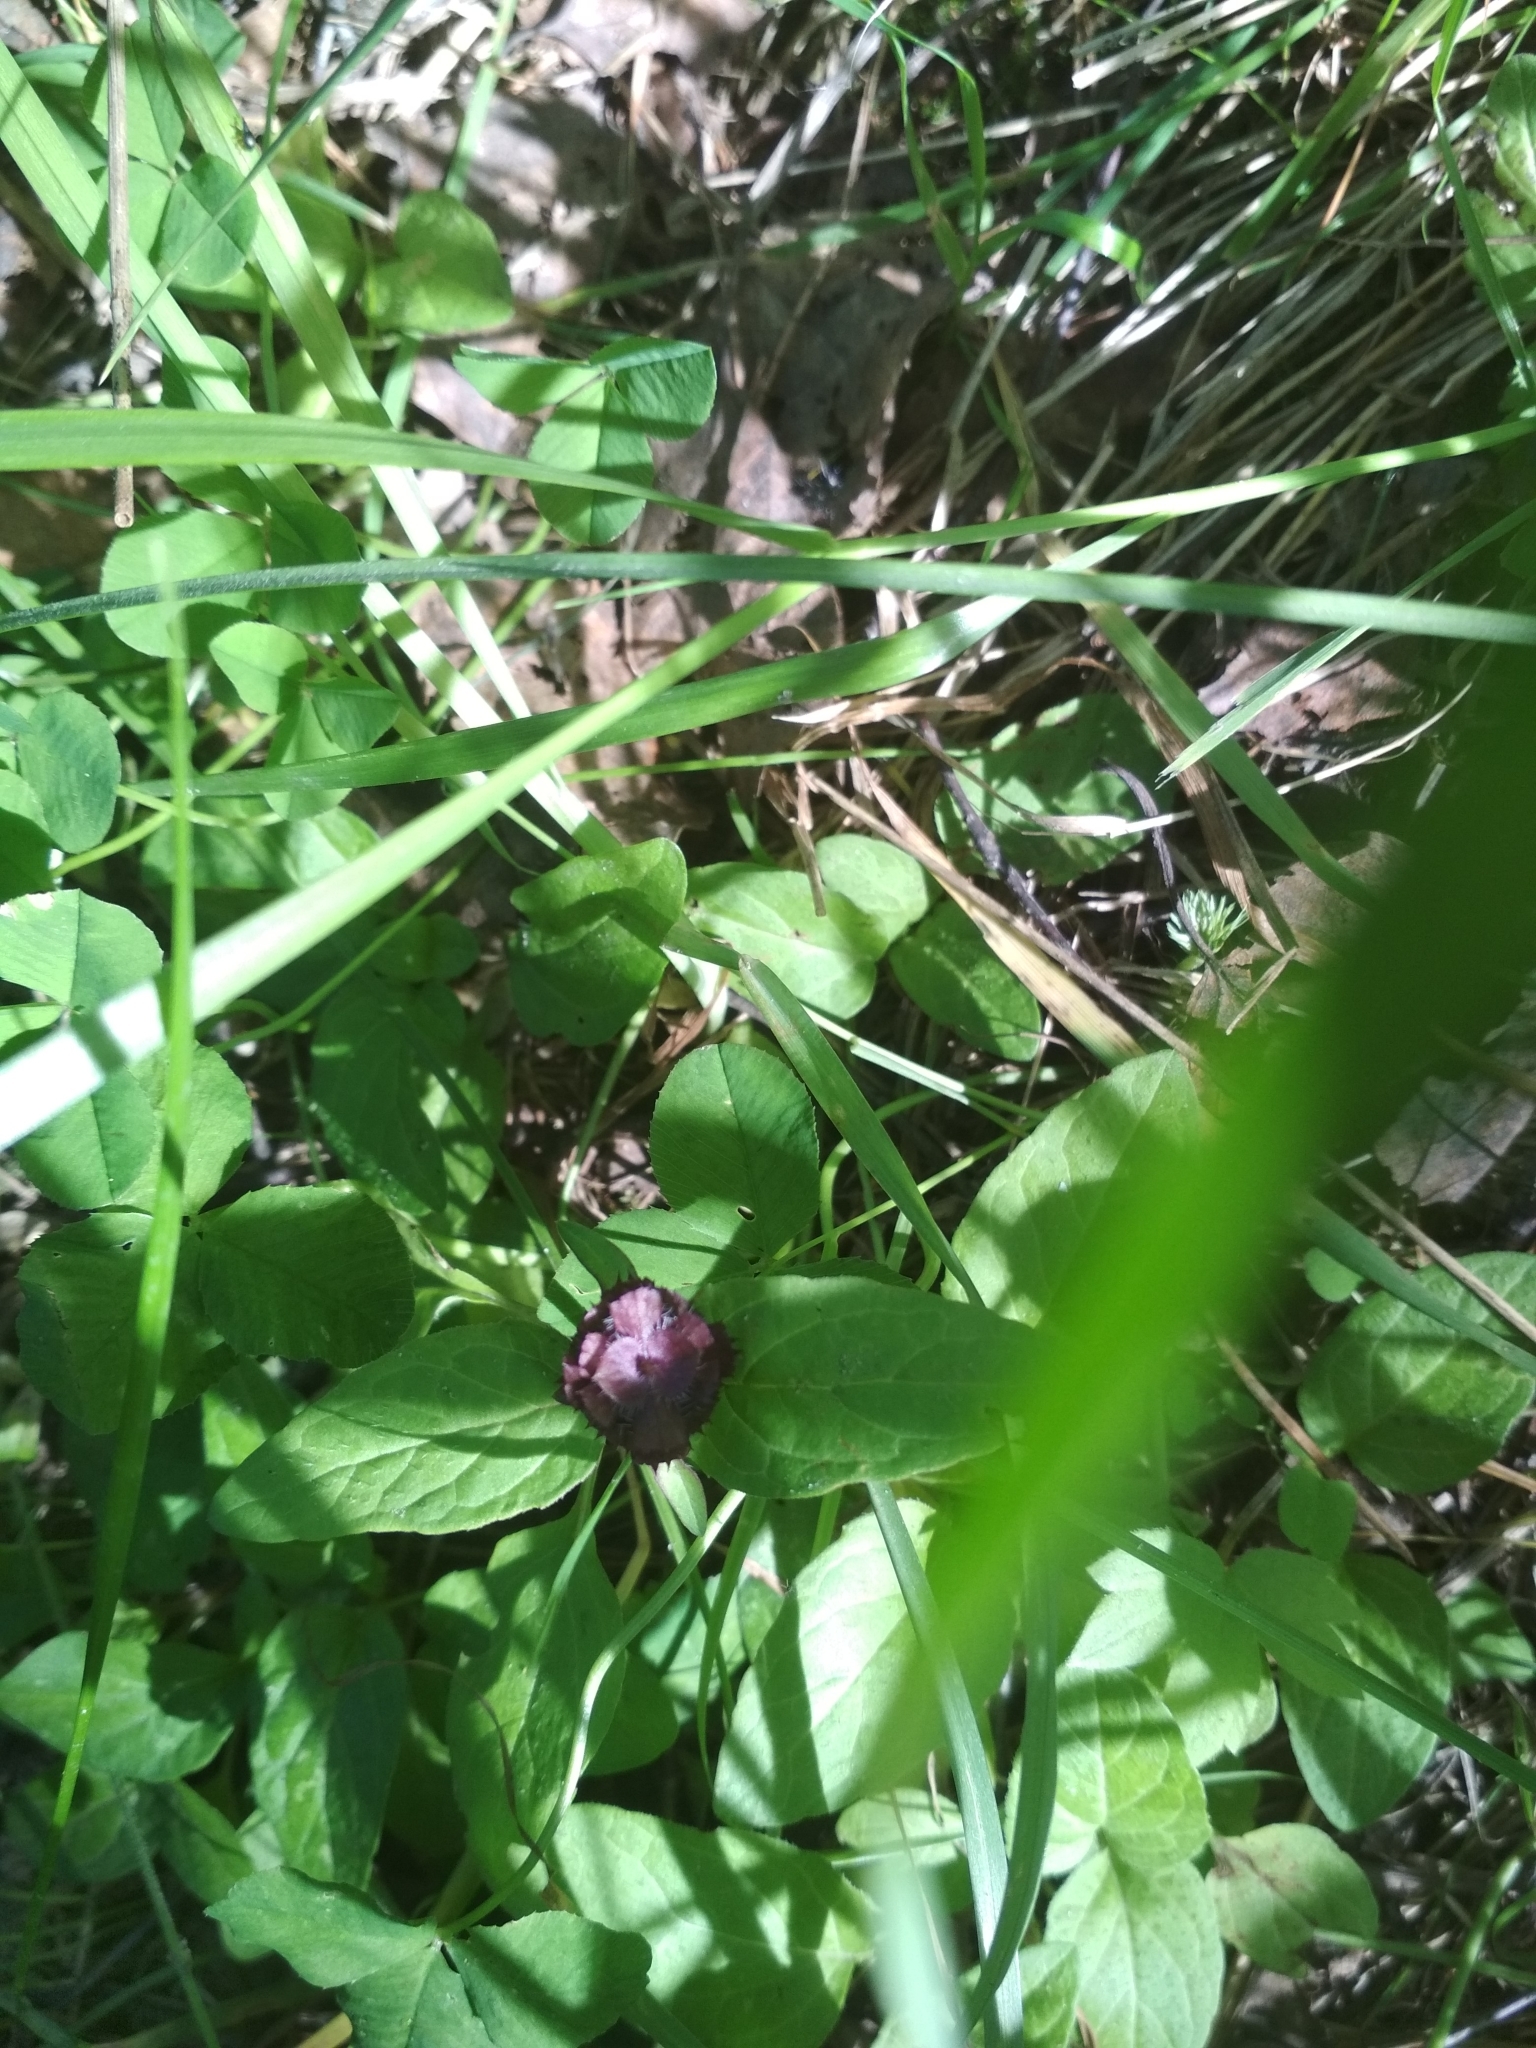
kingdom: Plantae
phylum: Tracheophyta
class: Magnoliopsida
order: Lamiales
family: Lamiaceae
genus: Prunella
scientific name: Prunella vulgaris
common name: Heal-all
